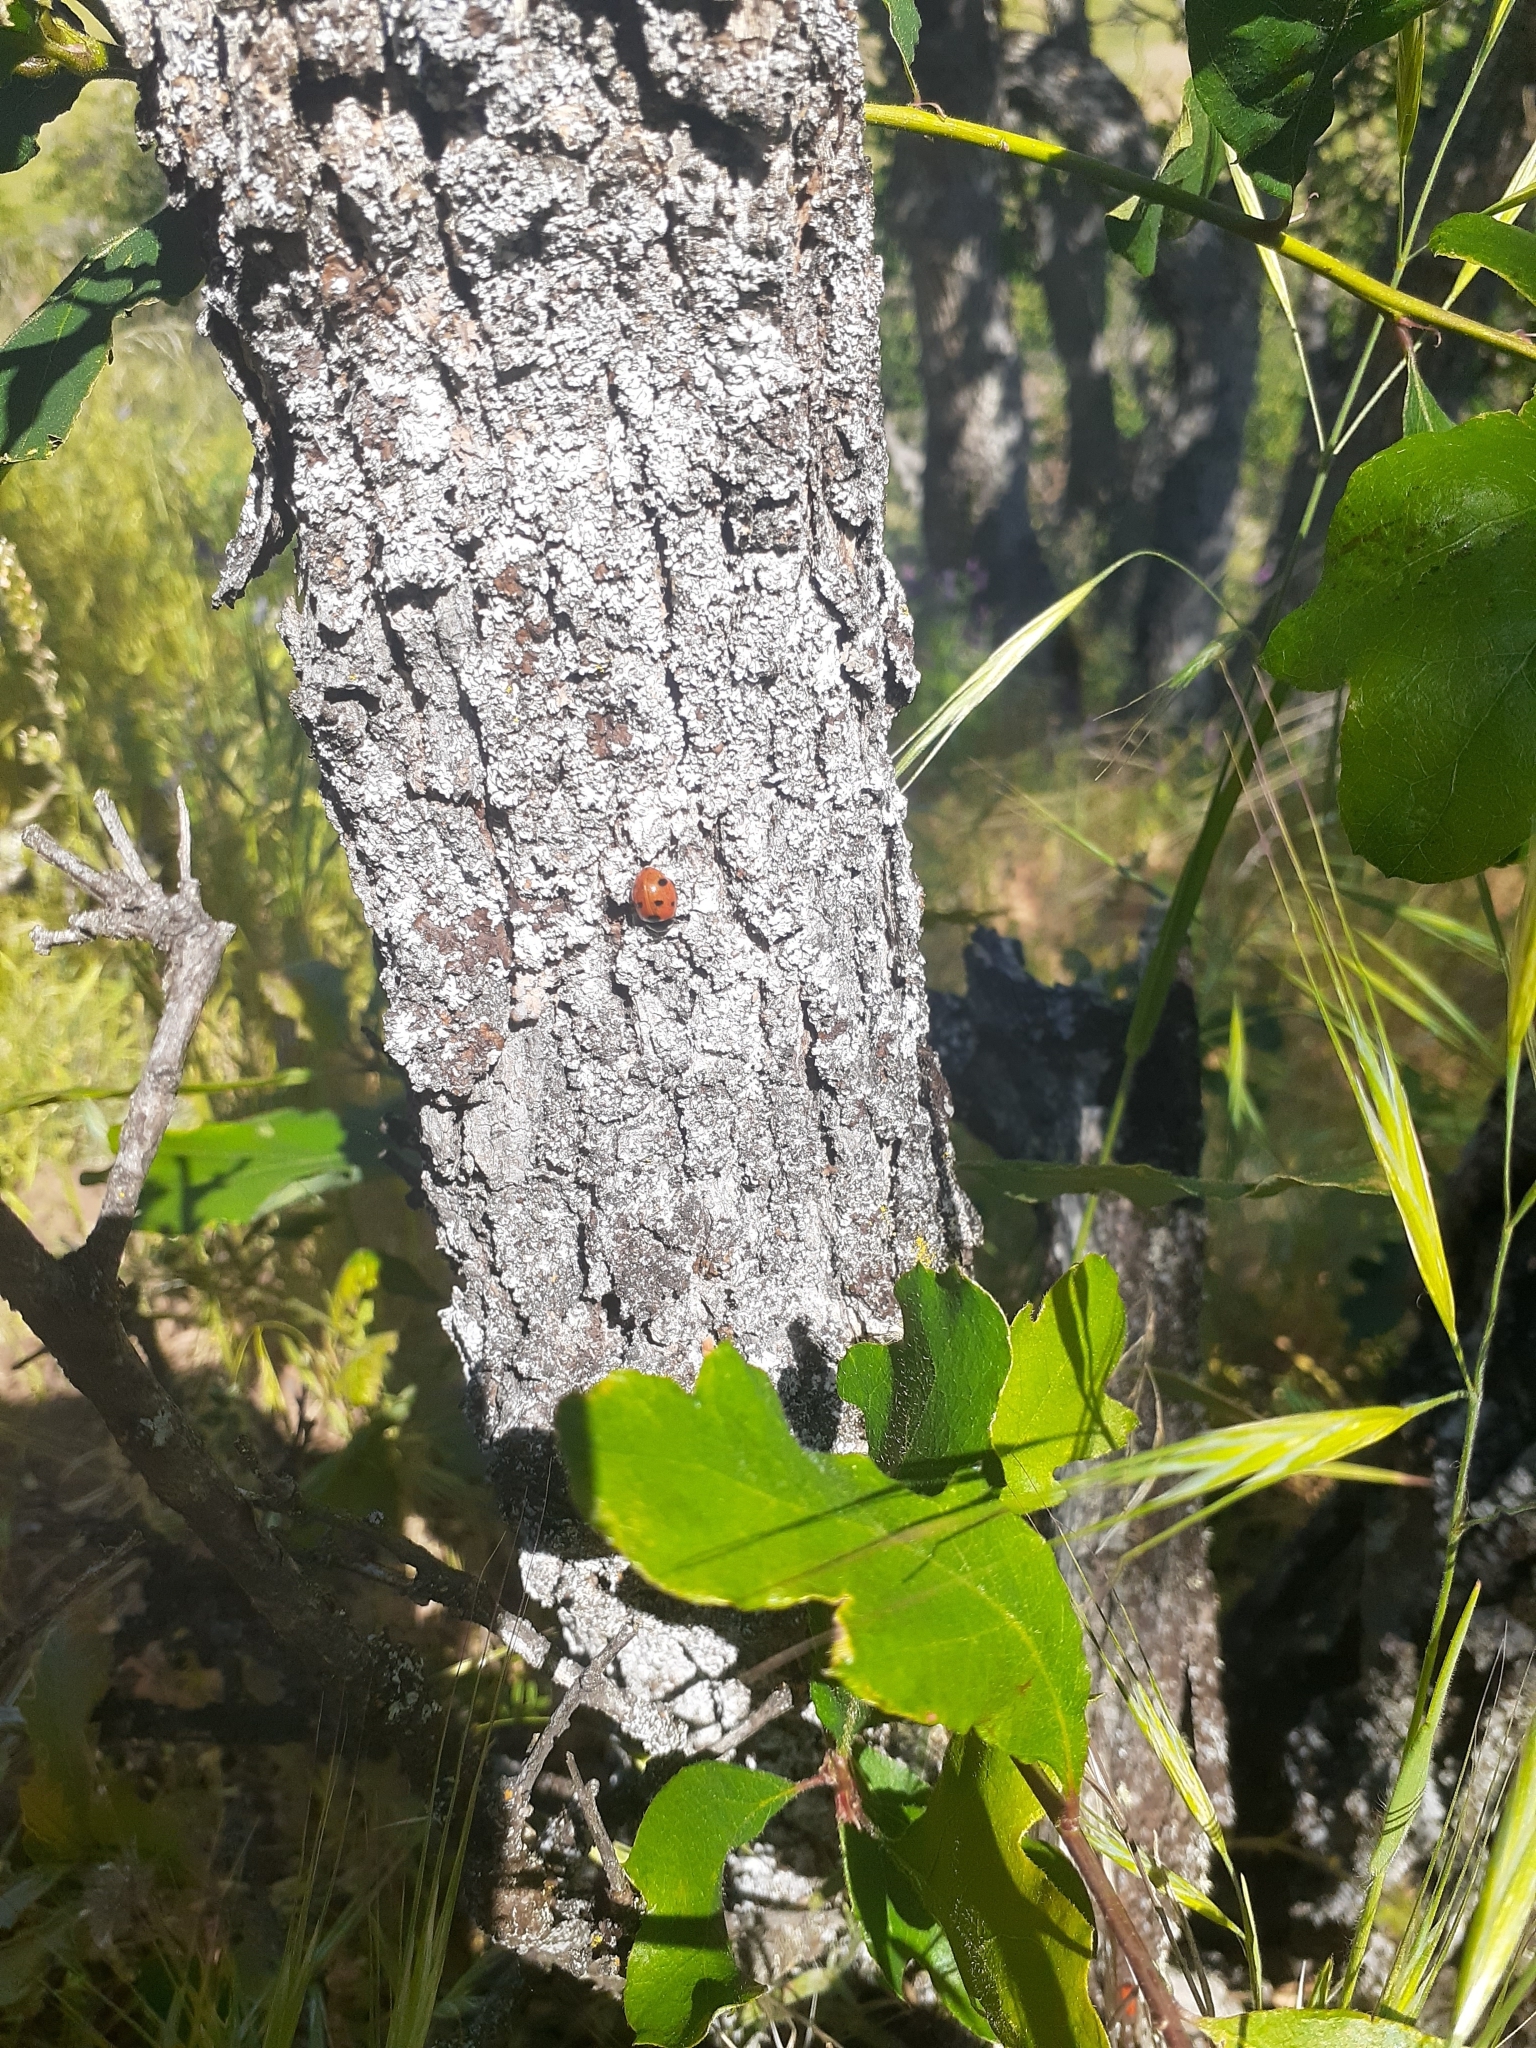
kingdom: Animalia
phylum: Arthropoda
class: Insecta
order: Coleoptera
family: Coccinellidae
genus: Coccinella
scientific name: Coccinella septempunctata
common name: Sevenspotted lady beetle
